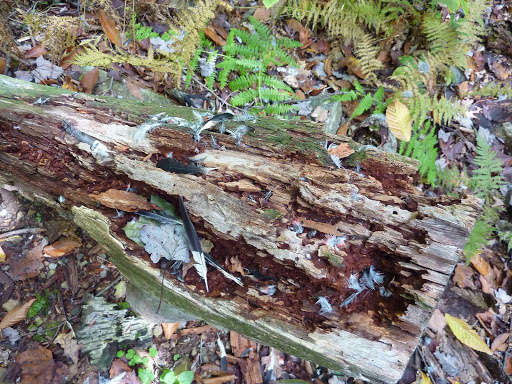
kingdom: Animalia
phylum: Chordata
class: Aves
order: Passeriformes
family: Cardinalidae
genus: Pheucticus
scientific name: Pheucticus ludovicianus
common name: Rose-breasted grosbeak
